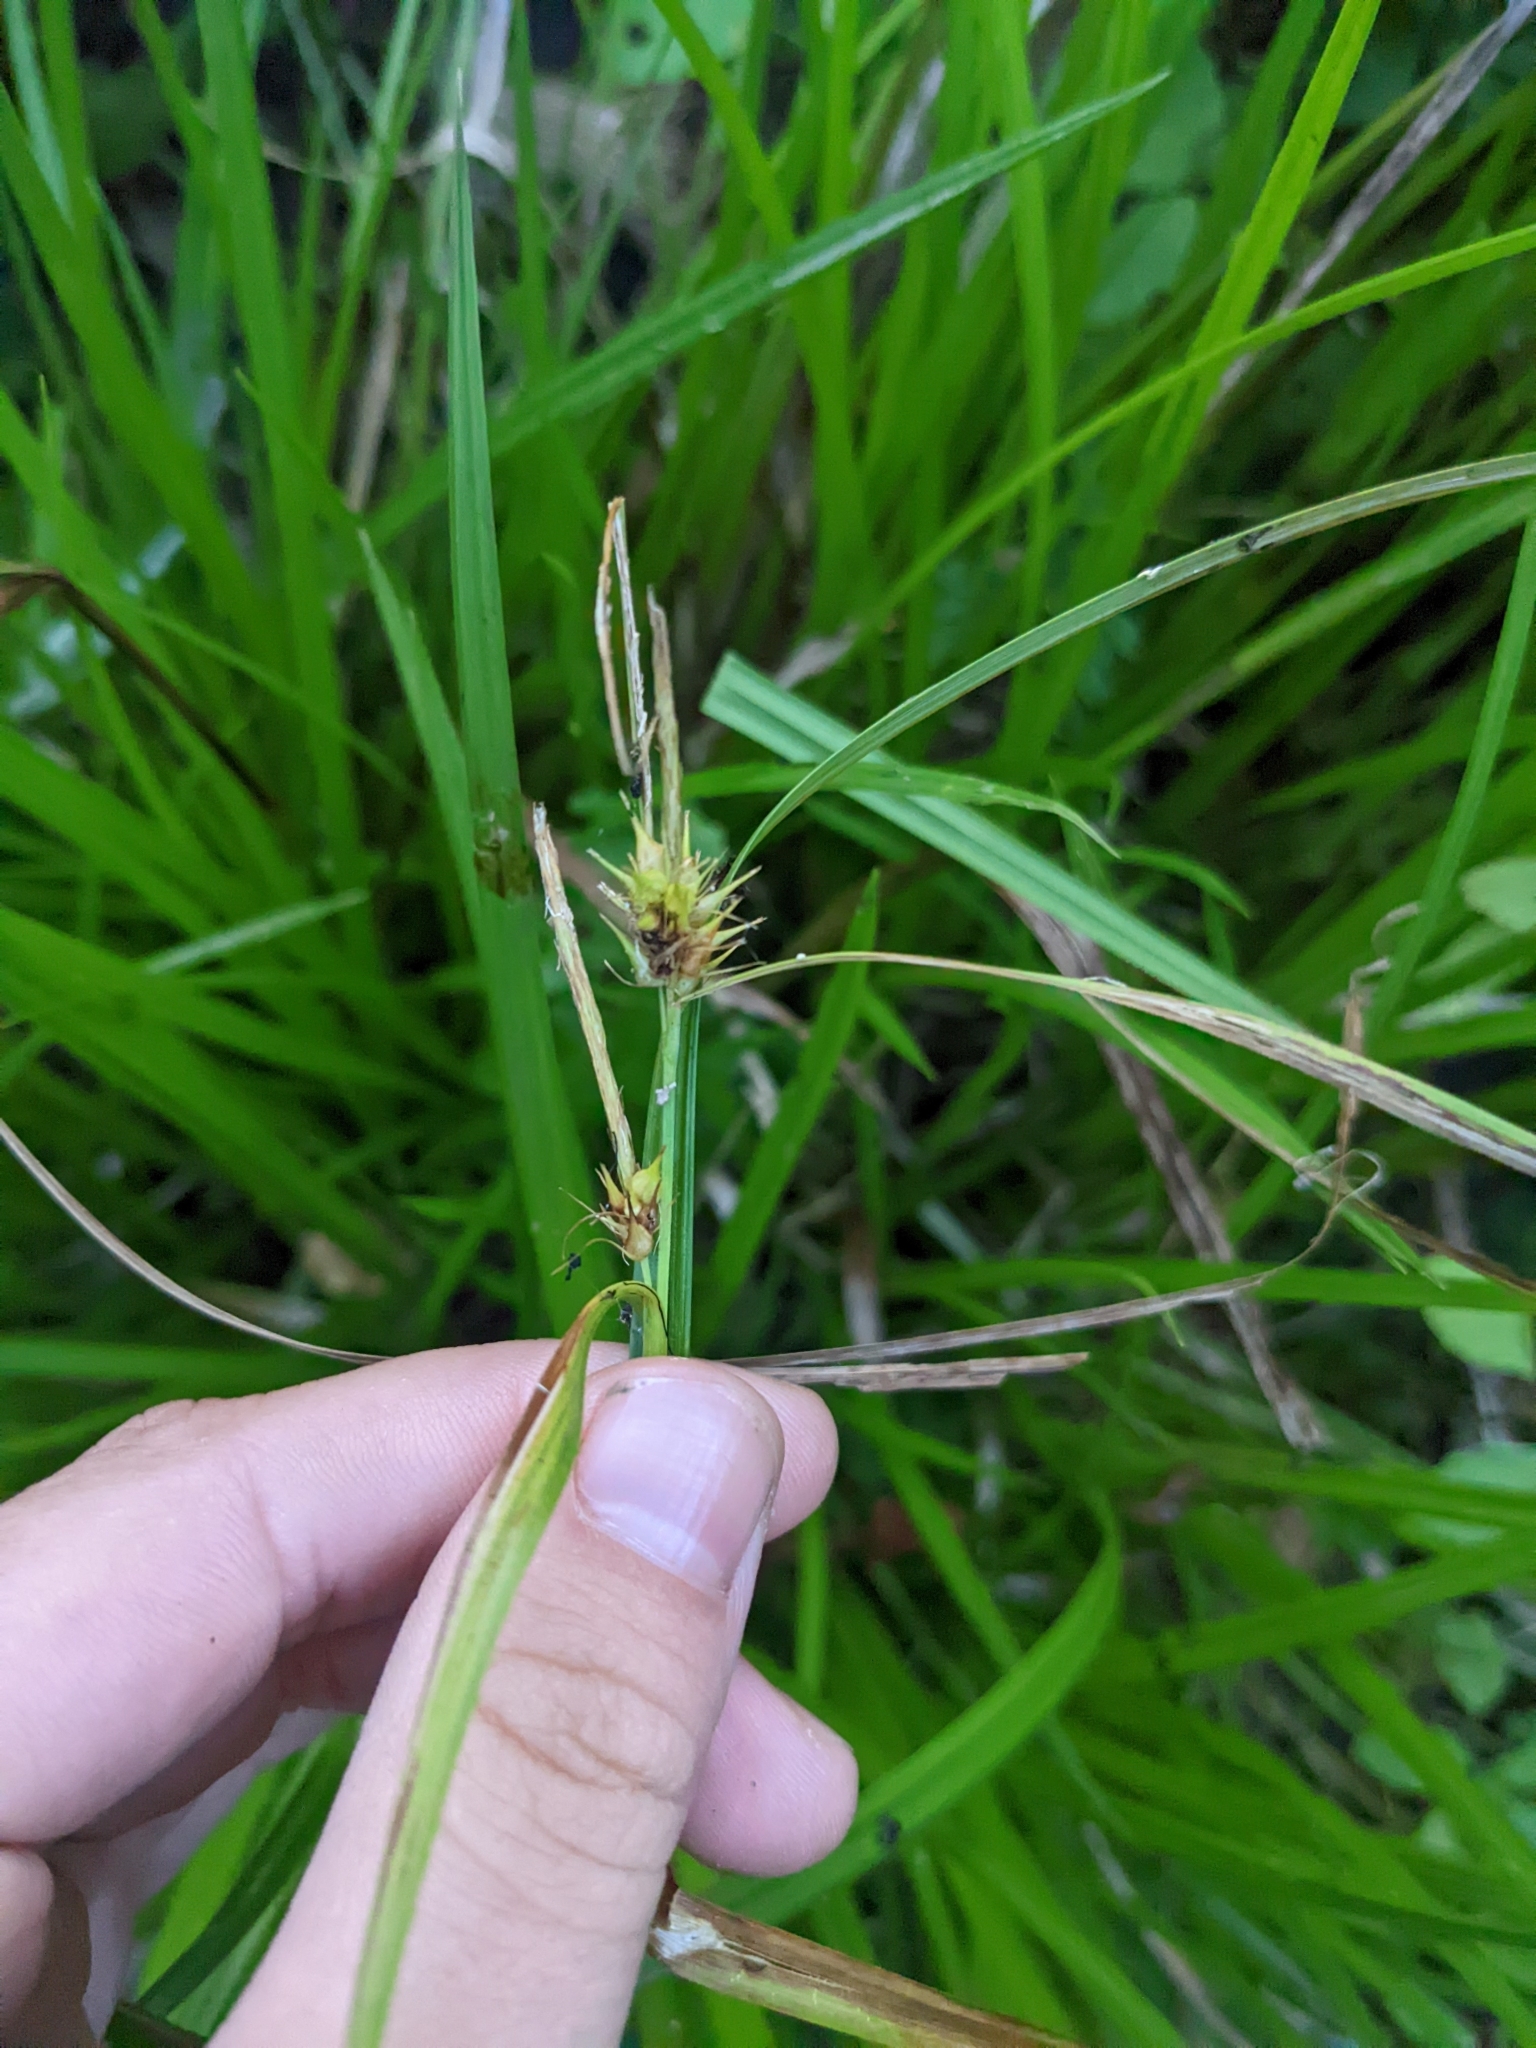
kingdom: Plantae
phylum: Tracheophyta
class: Liliopsida
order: Poales
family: Cyperaceae
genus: Carex
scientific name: Carex lurida
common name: Sallow sedge
